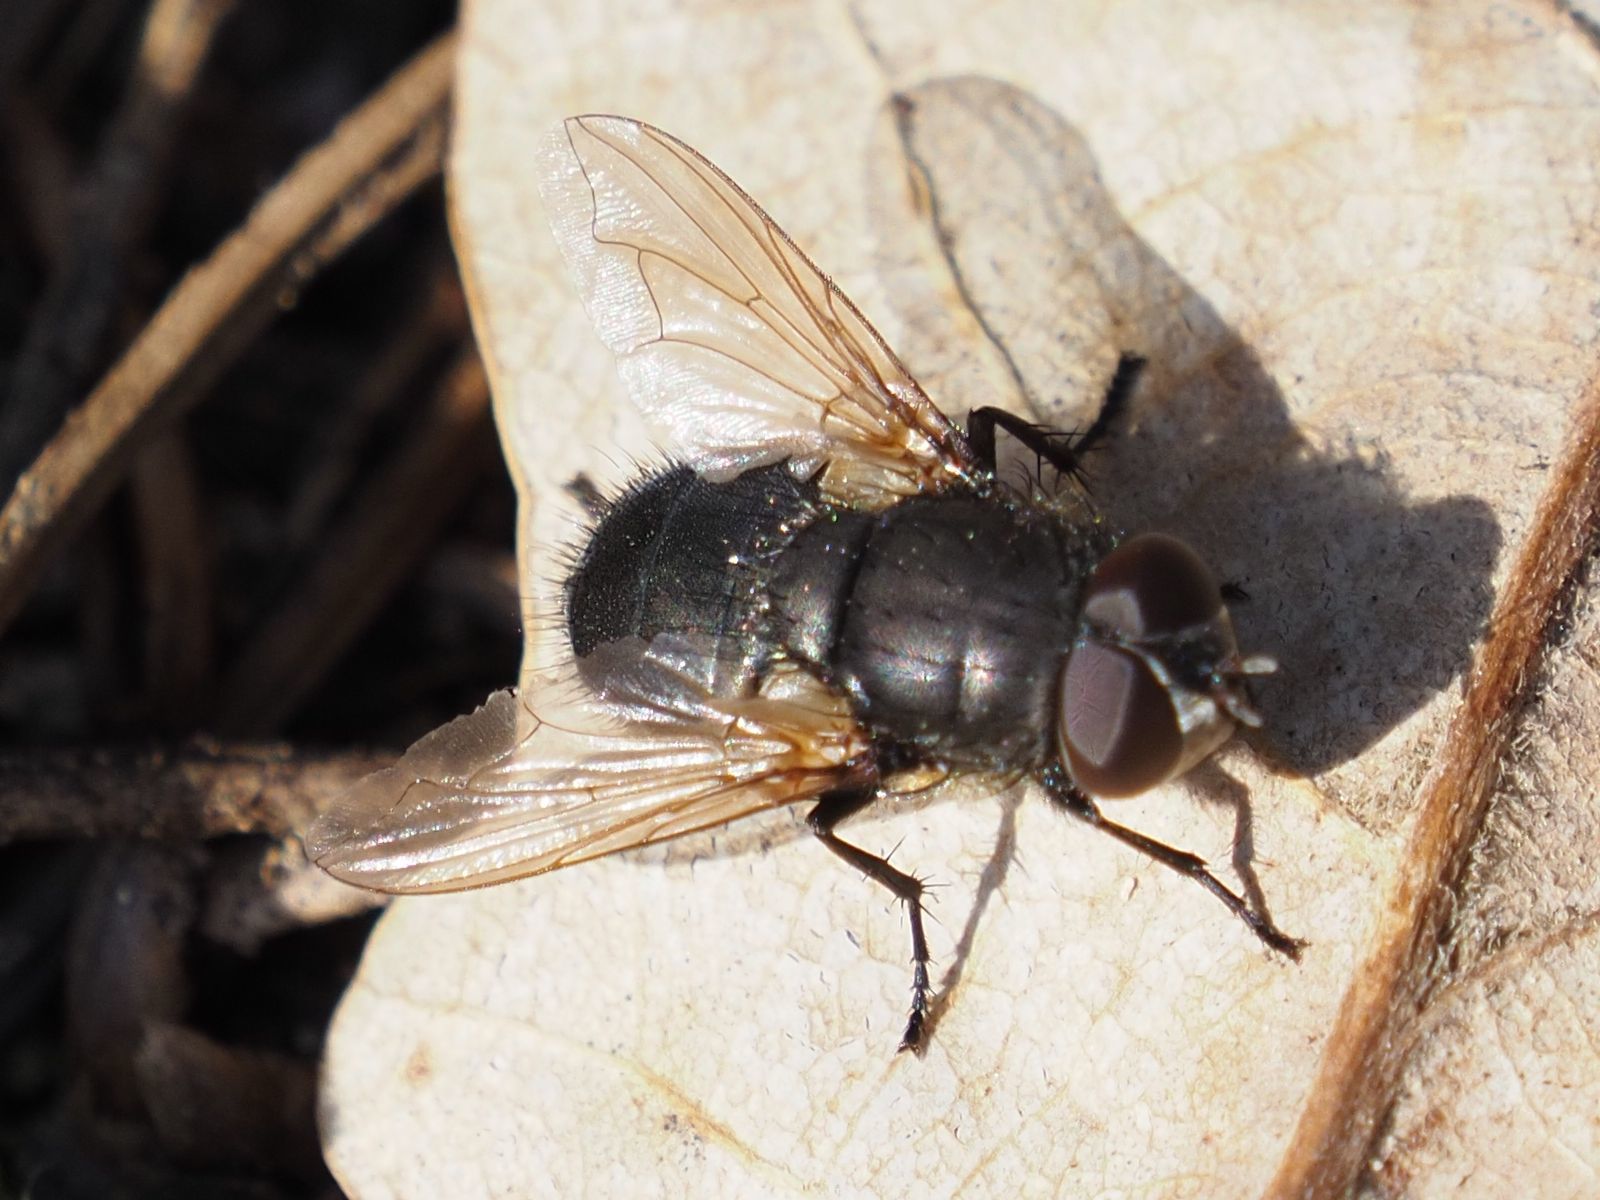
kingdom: Animalia
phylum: Arthropoda
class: Insecta
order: Diptera
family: Polleniidae
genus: Pollenia
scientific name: Pollenia amentaria
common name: Black-bellied clusterfly
